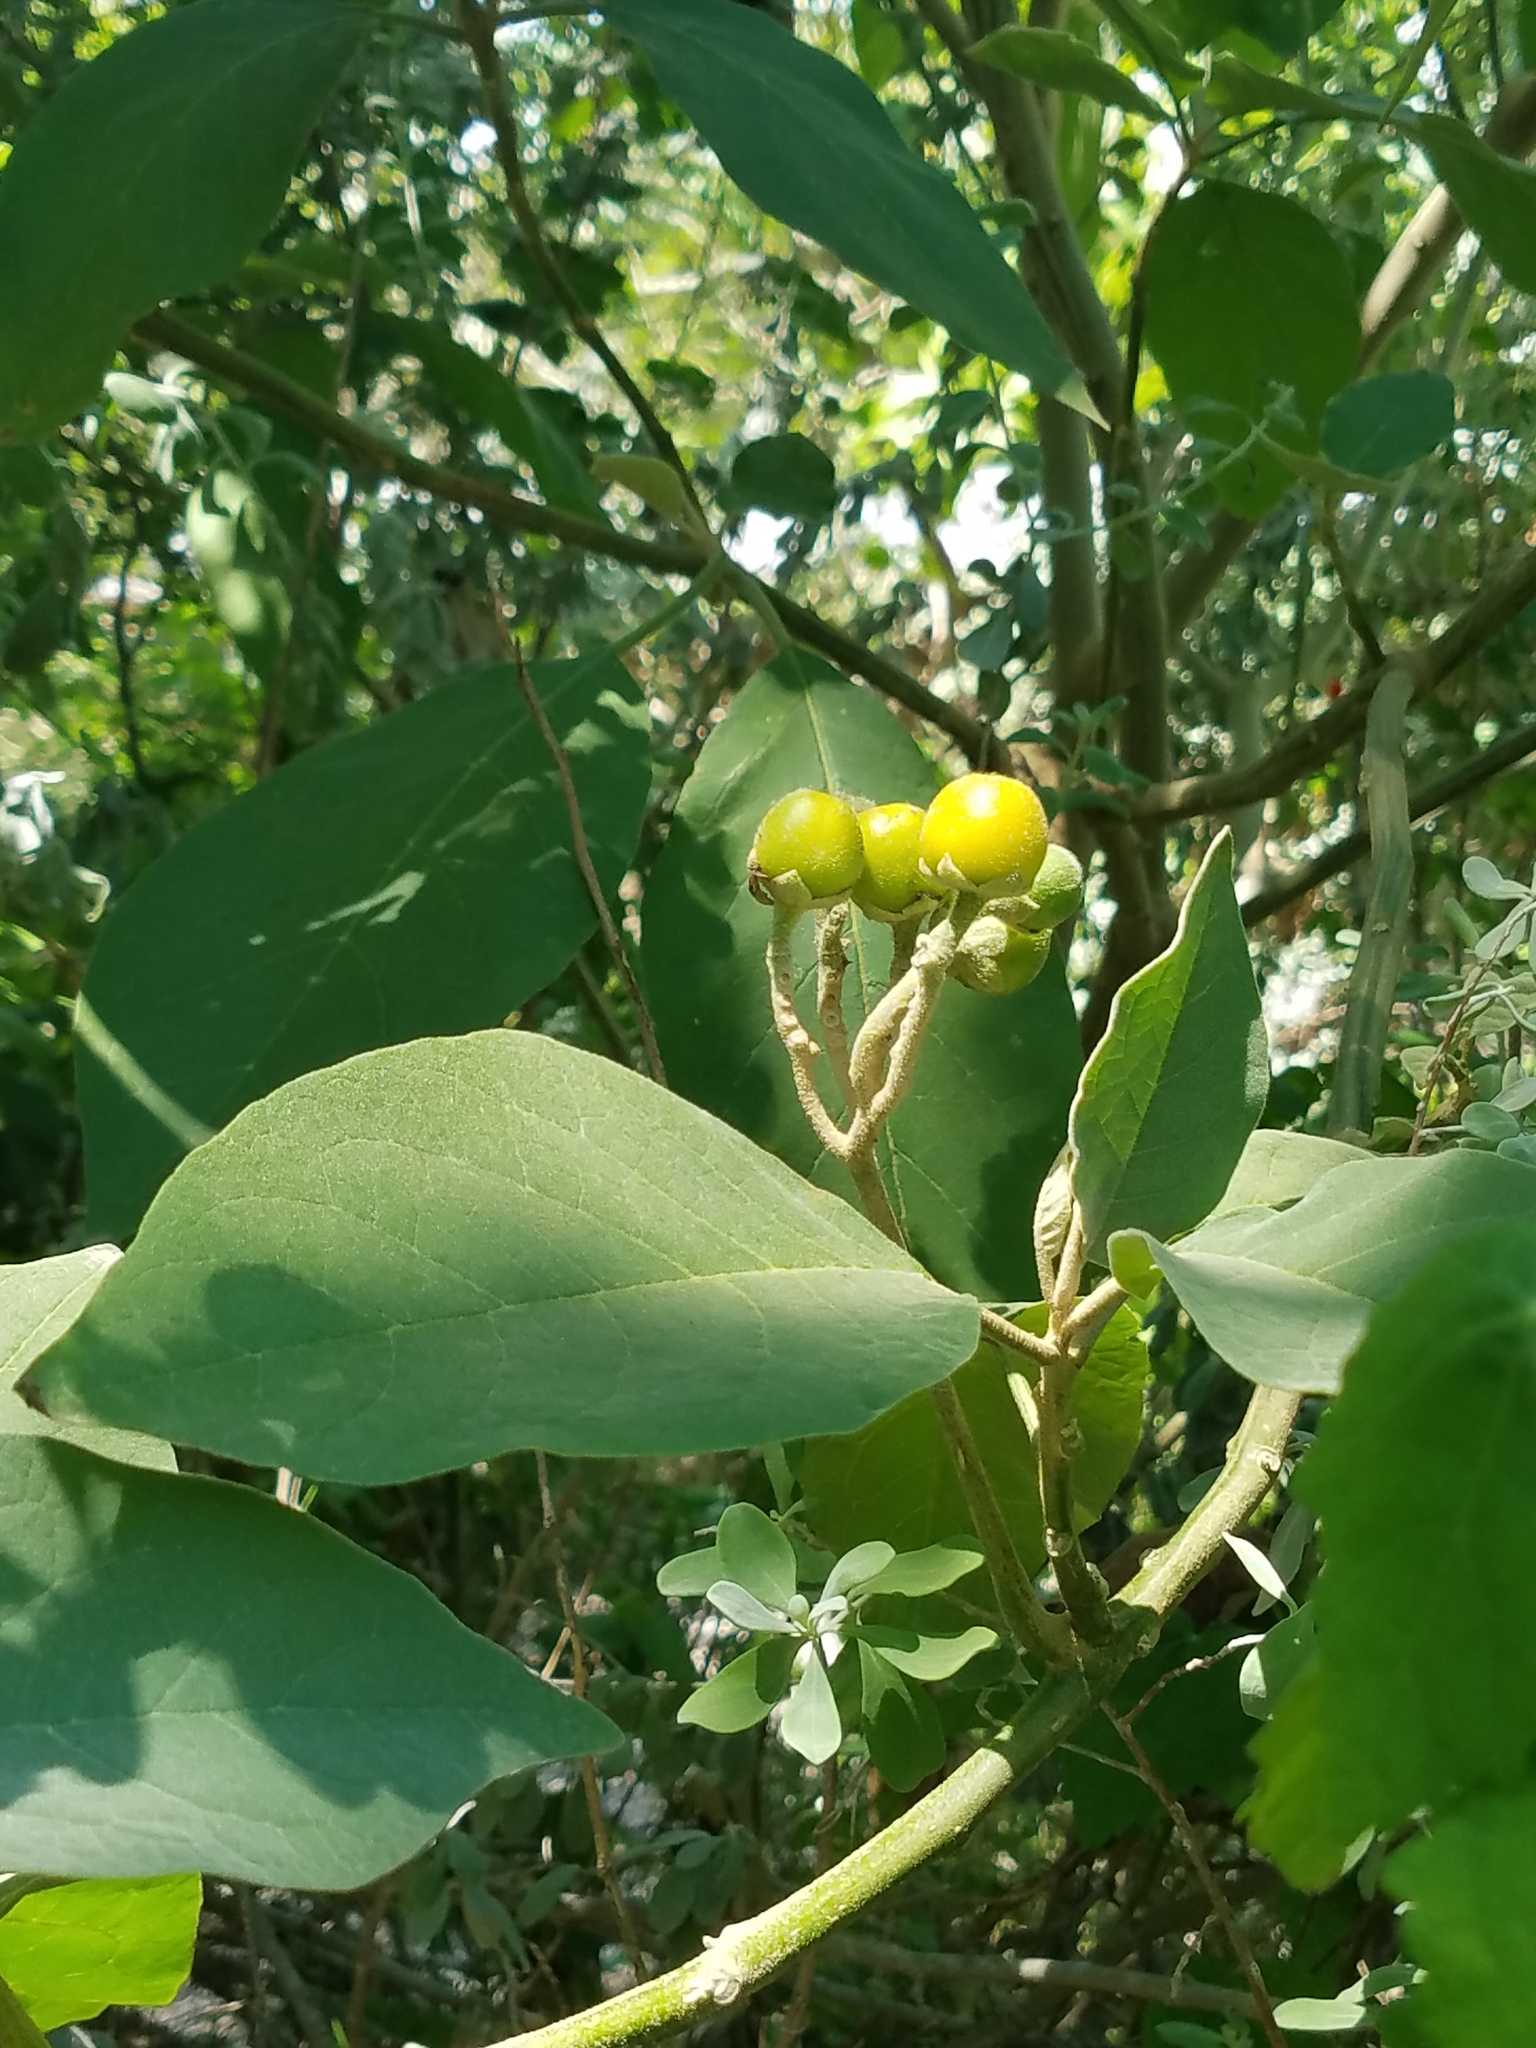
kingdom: Plantae
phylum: Tracheophyta
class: Magnoliopsida
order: Solanales
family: Solanaceae
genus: Solanum
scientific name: Solanum erianthum
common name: Tobacco-tree
